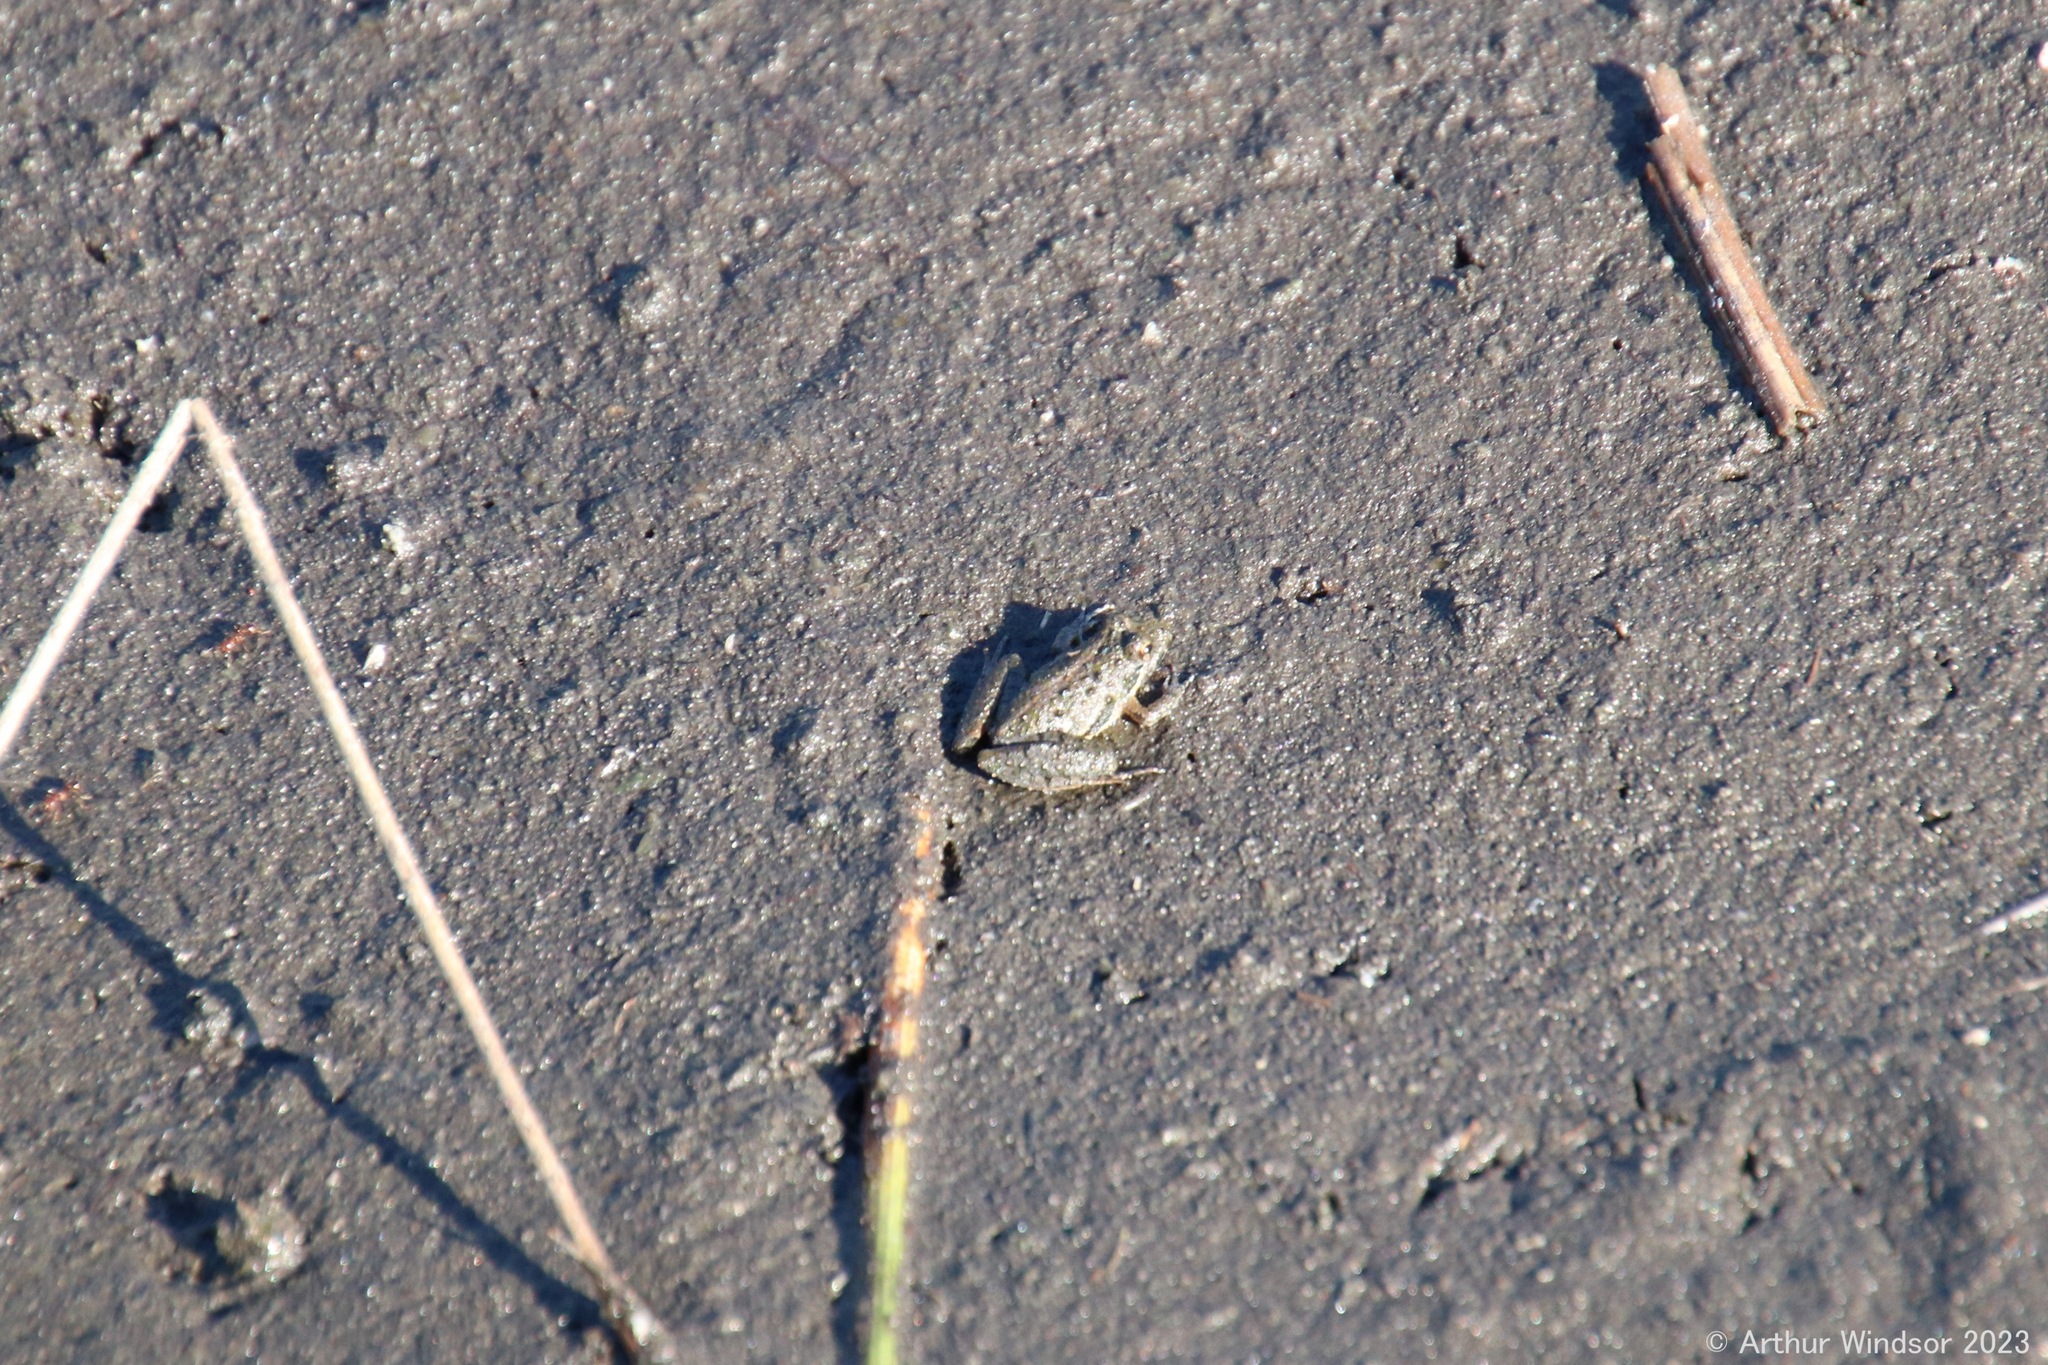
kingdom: Animalia
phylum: Chordata
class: Amphibia
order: Anura
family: Hylidae
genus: Acris
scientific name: Acris gryllus
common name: Southern cricket frog
